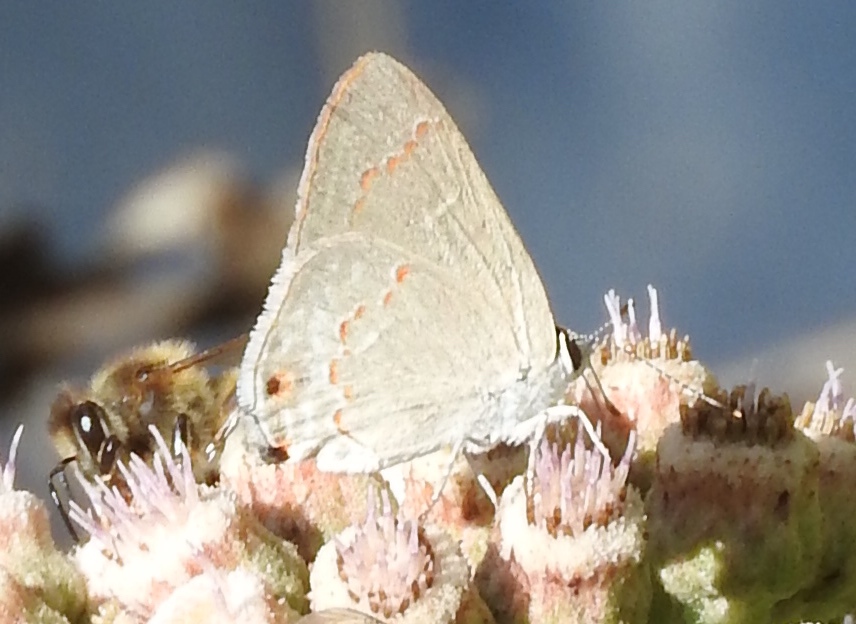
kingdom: Animalia
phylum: Arthropoda
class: Insecta
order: Lepidoptera
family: Lycaenidae
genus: Thecla
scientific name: Thecla rufofusca
